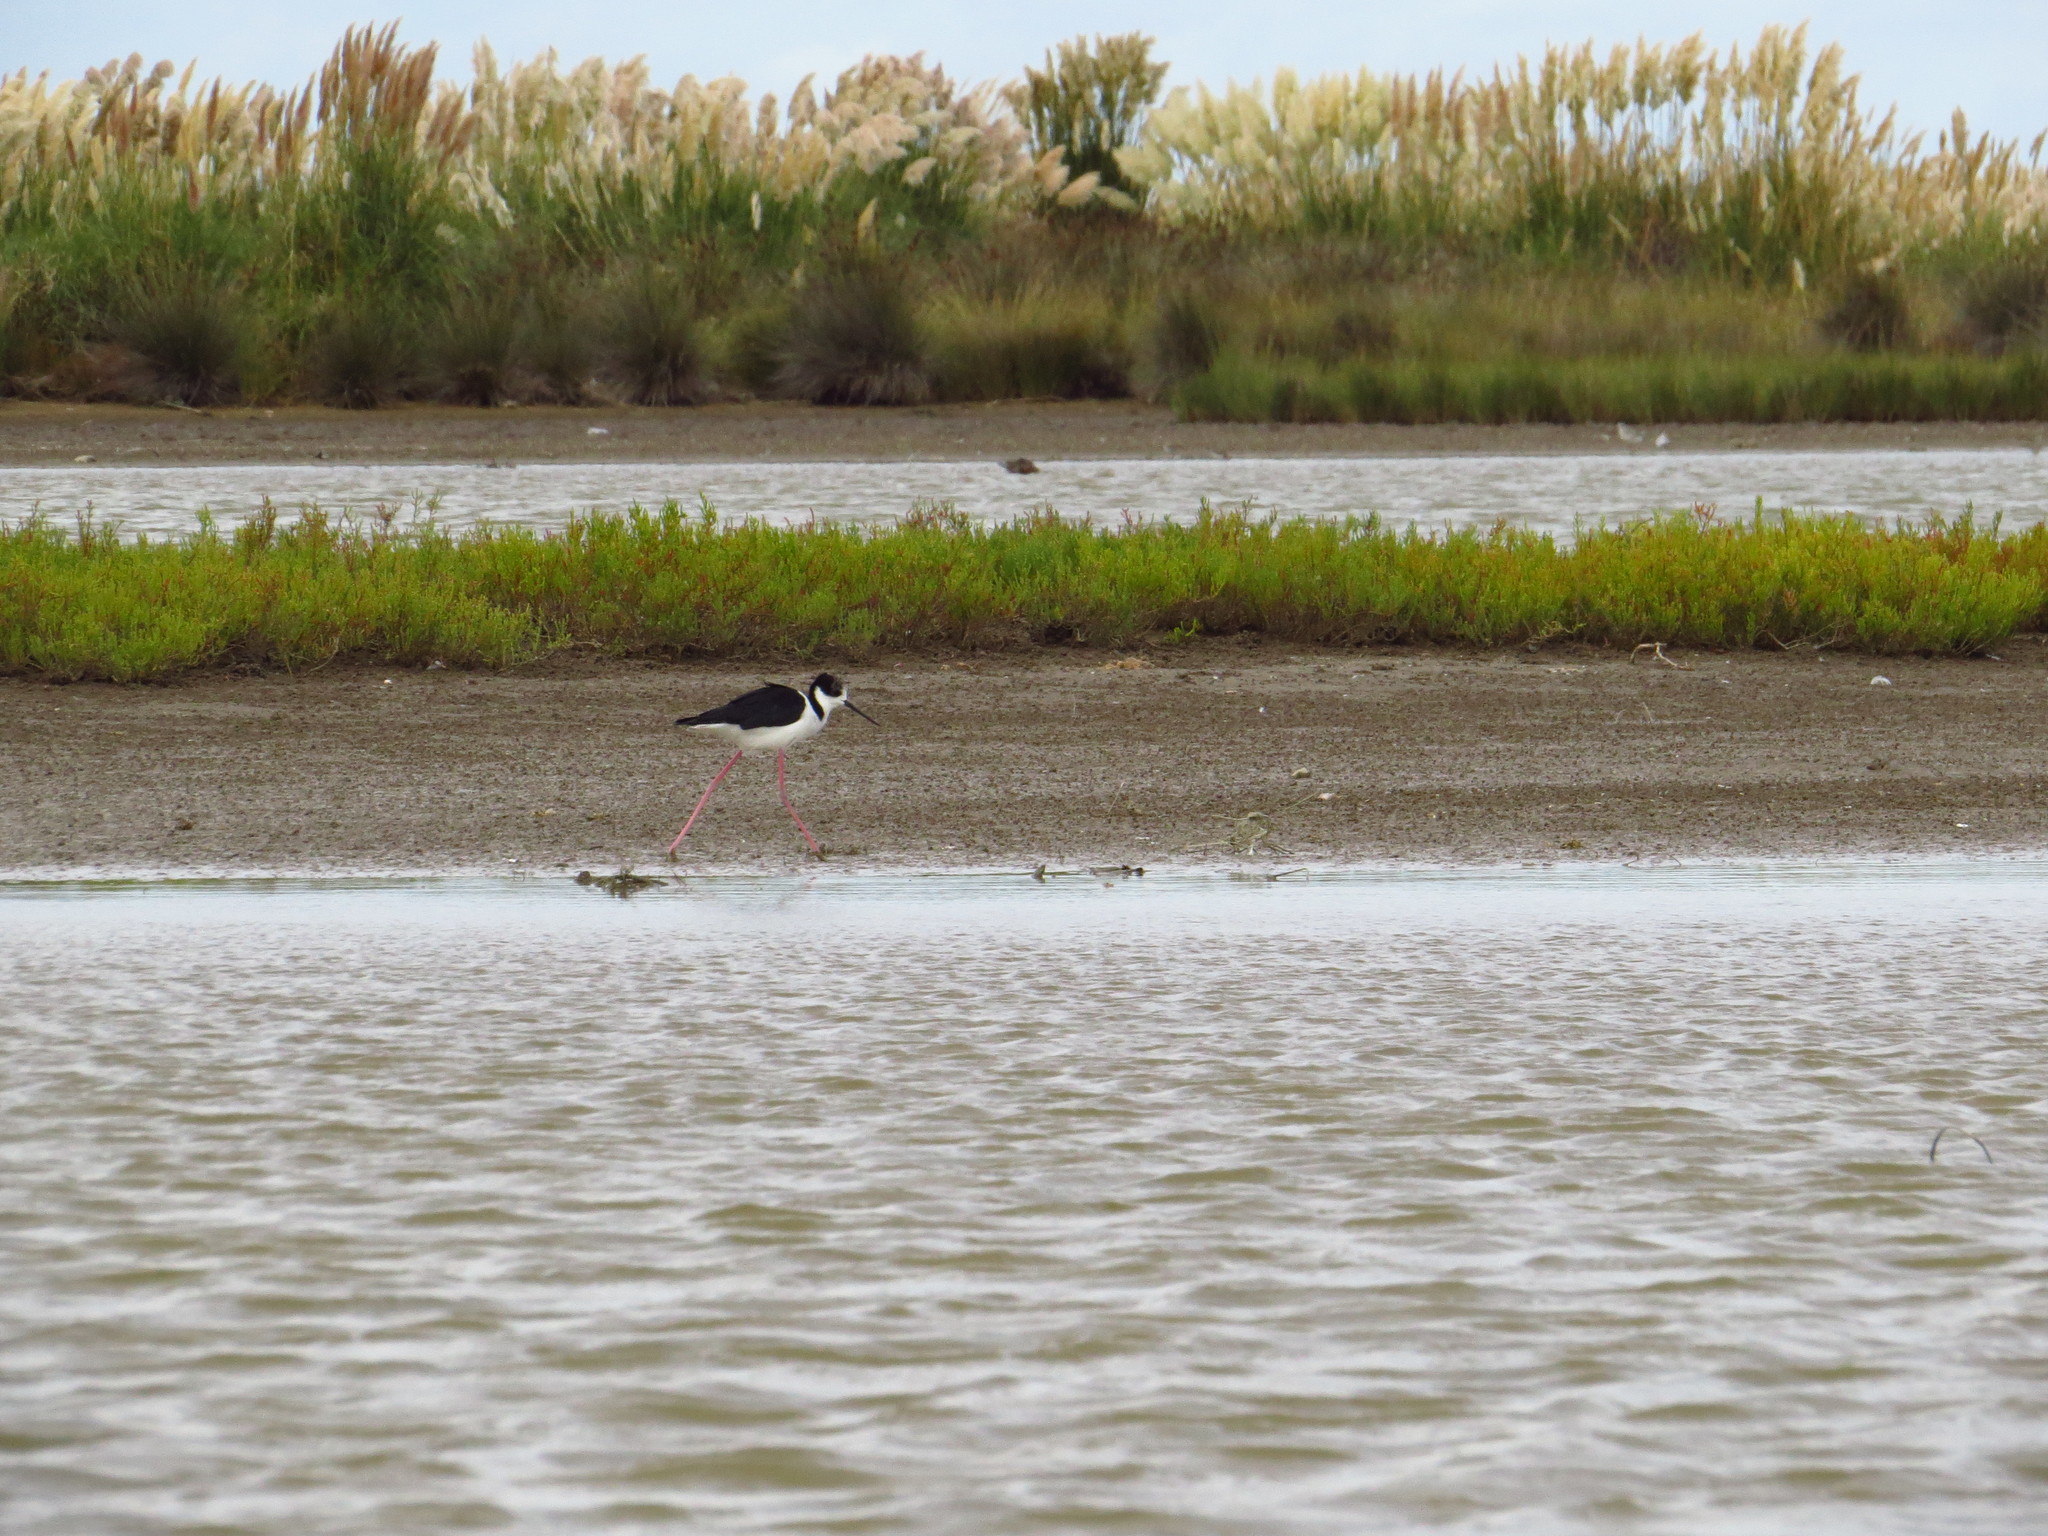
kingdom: Animalia
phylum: Chordata
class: Aves
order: Charadriiformes
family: Recurvirostridae
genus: Himantopus
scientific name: Himantopus mexicanus
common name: Black-necked stilt
